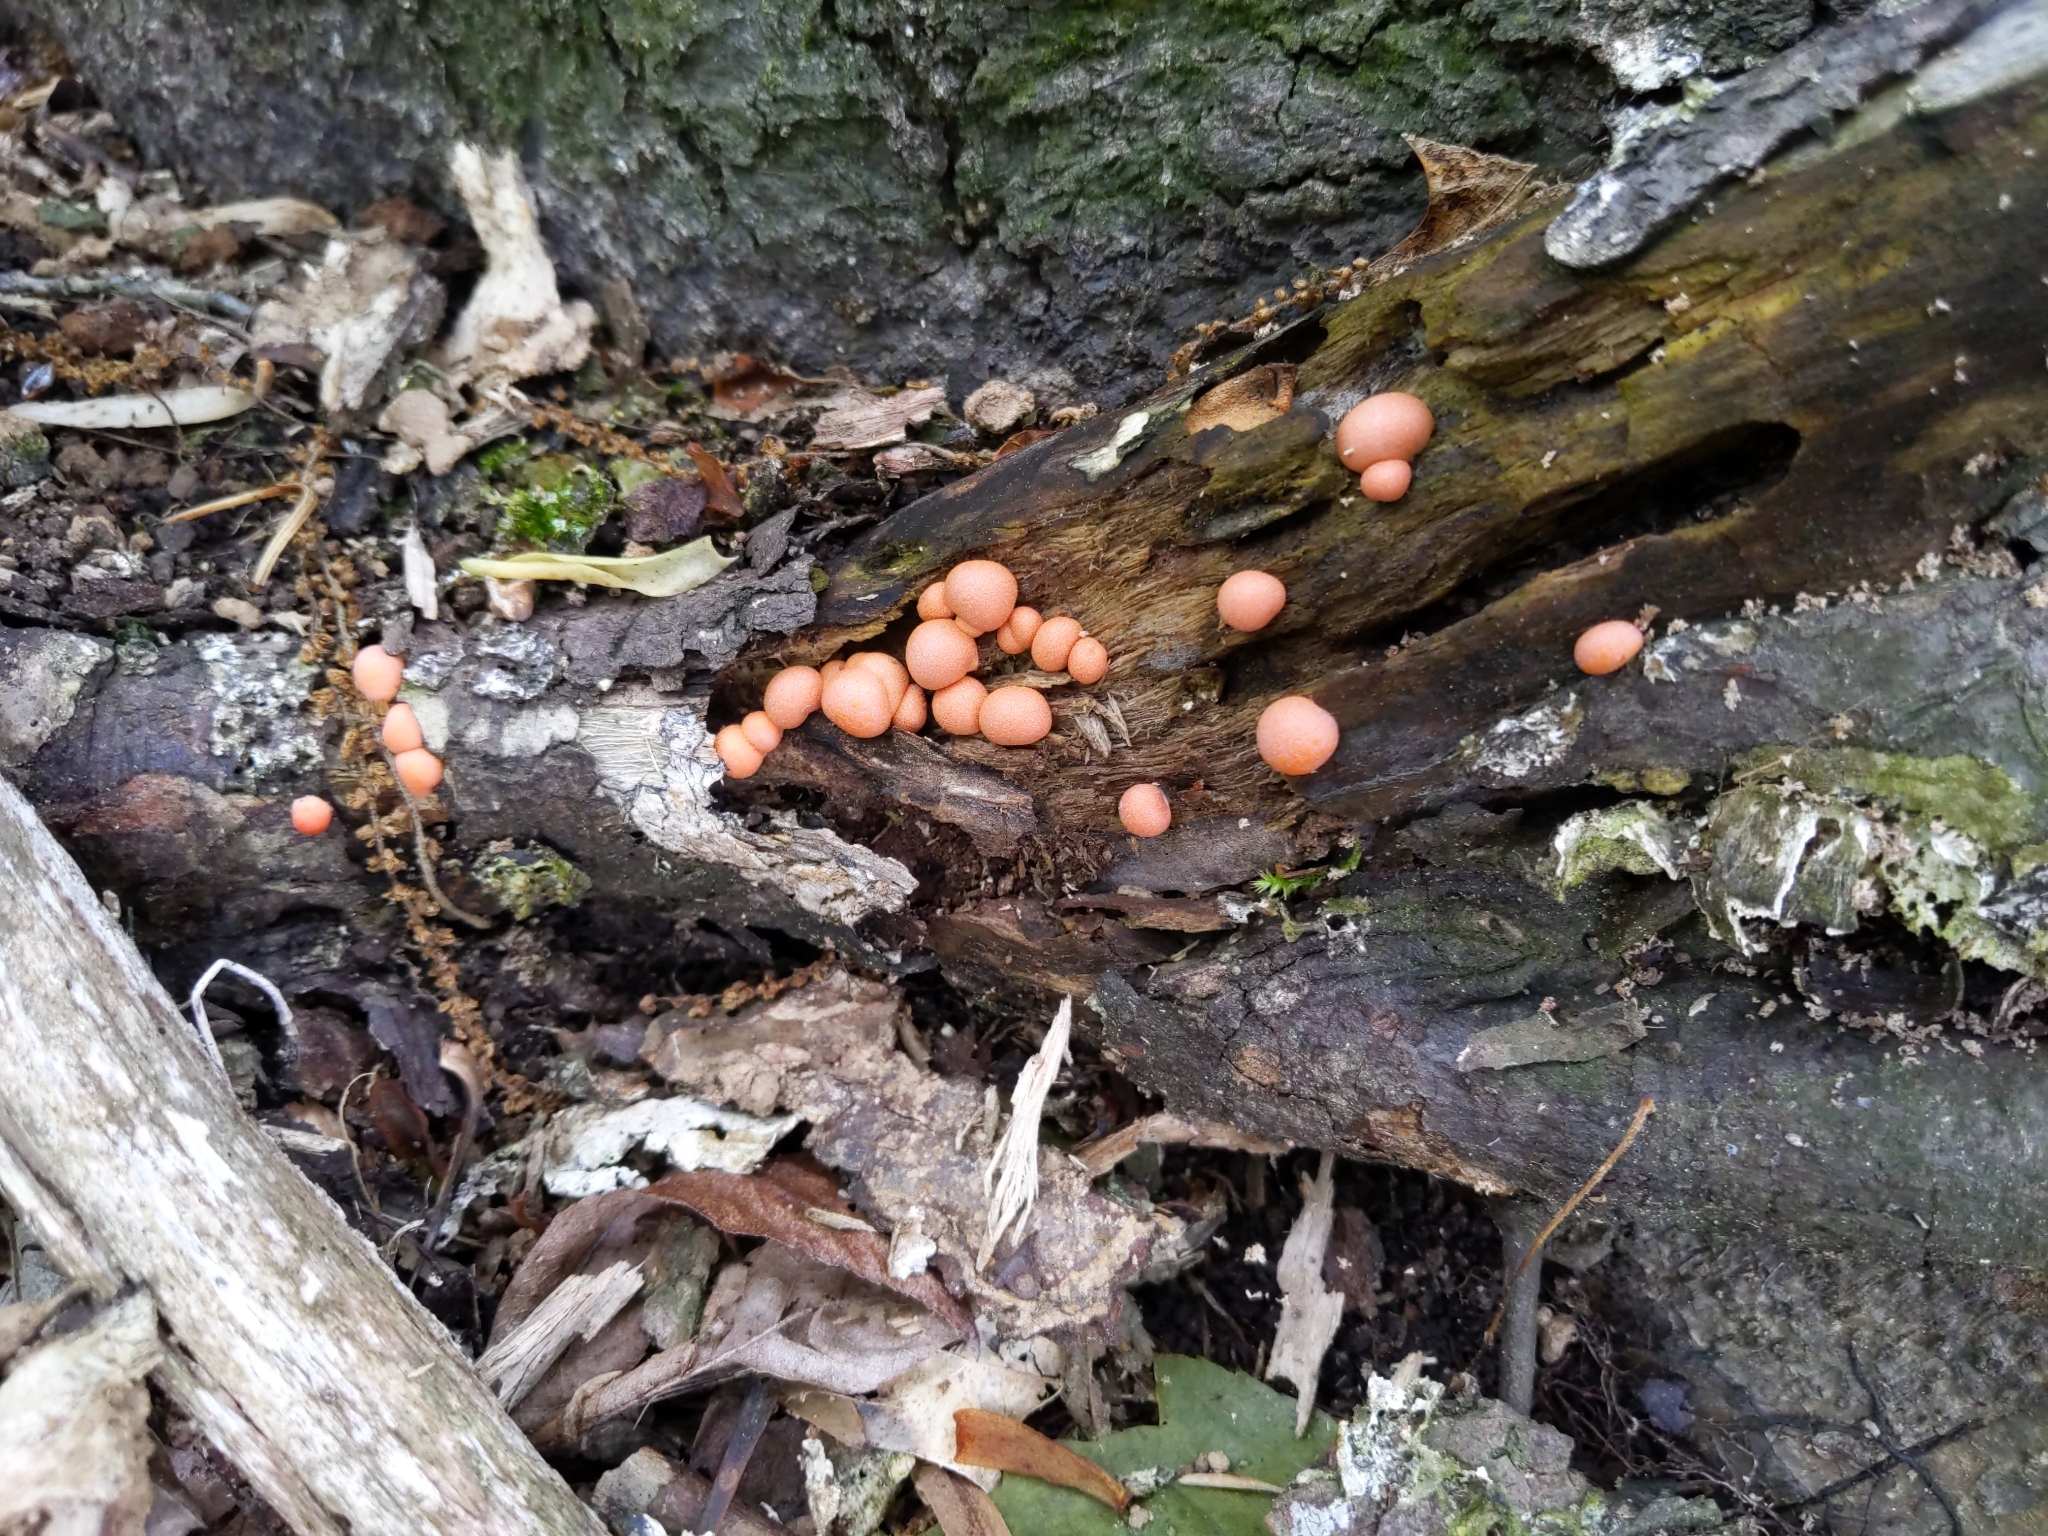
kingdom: Protozoa
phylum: Mycetozoa
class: Myxomycetes
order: Cribrariales
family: Tubiferaceae
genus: Lycogala
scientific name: Lycogala epidendrum
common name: Wolf's milk
